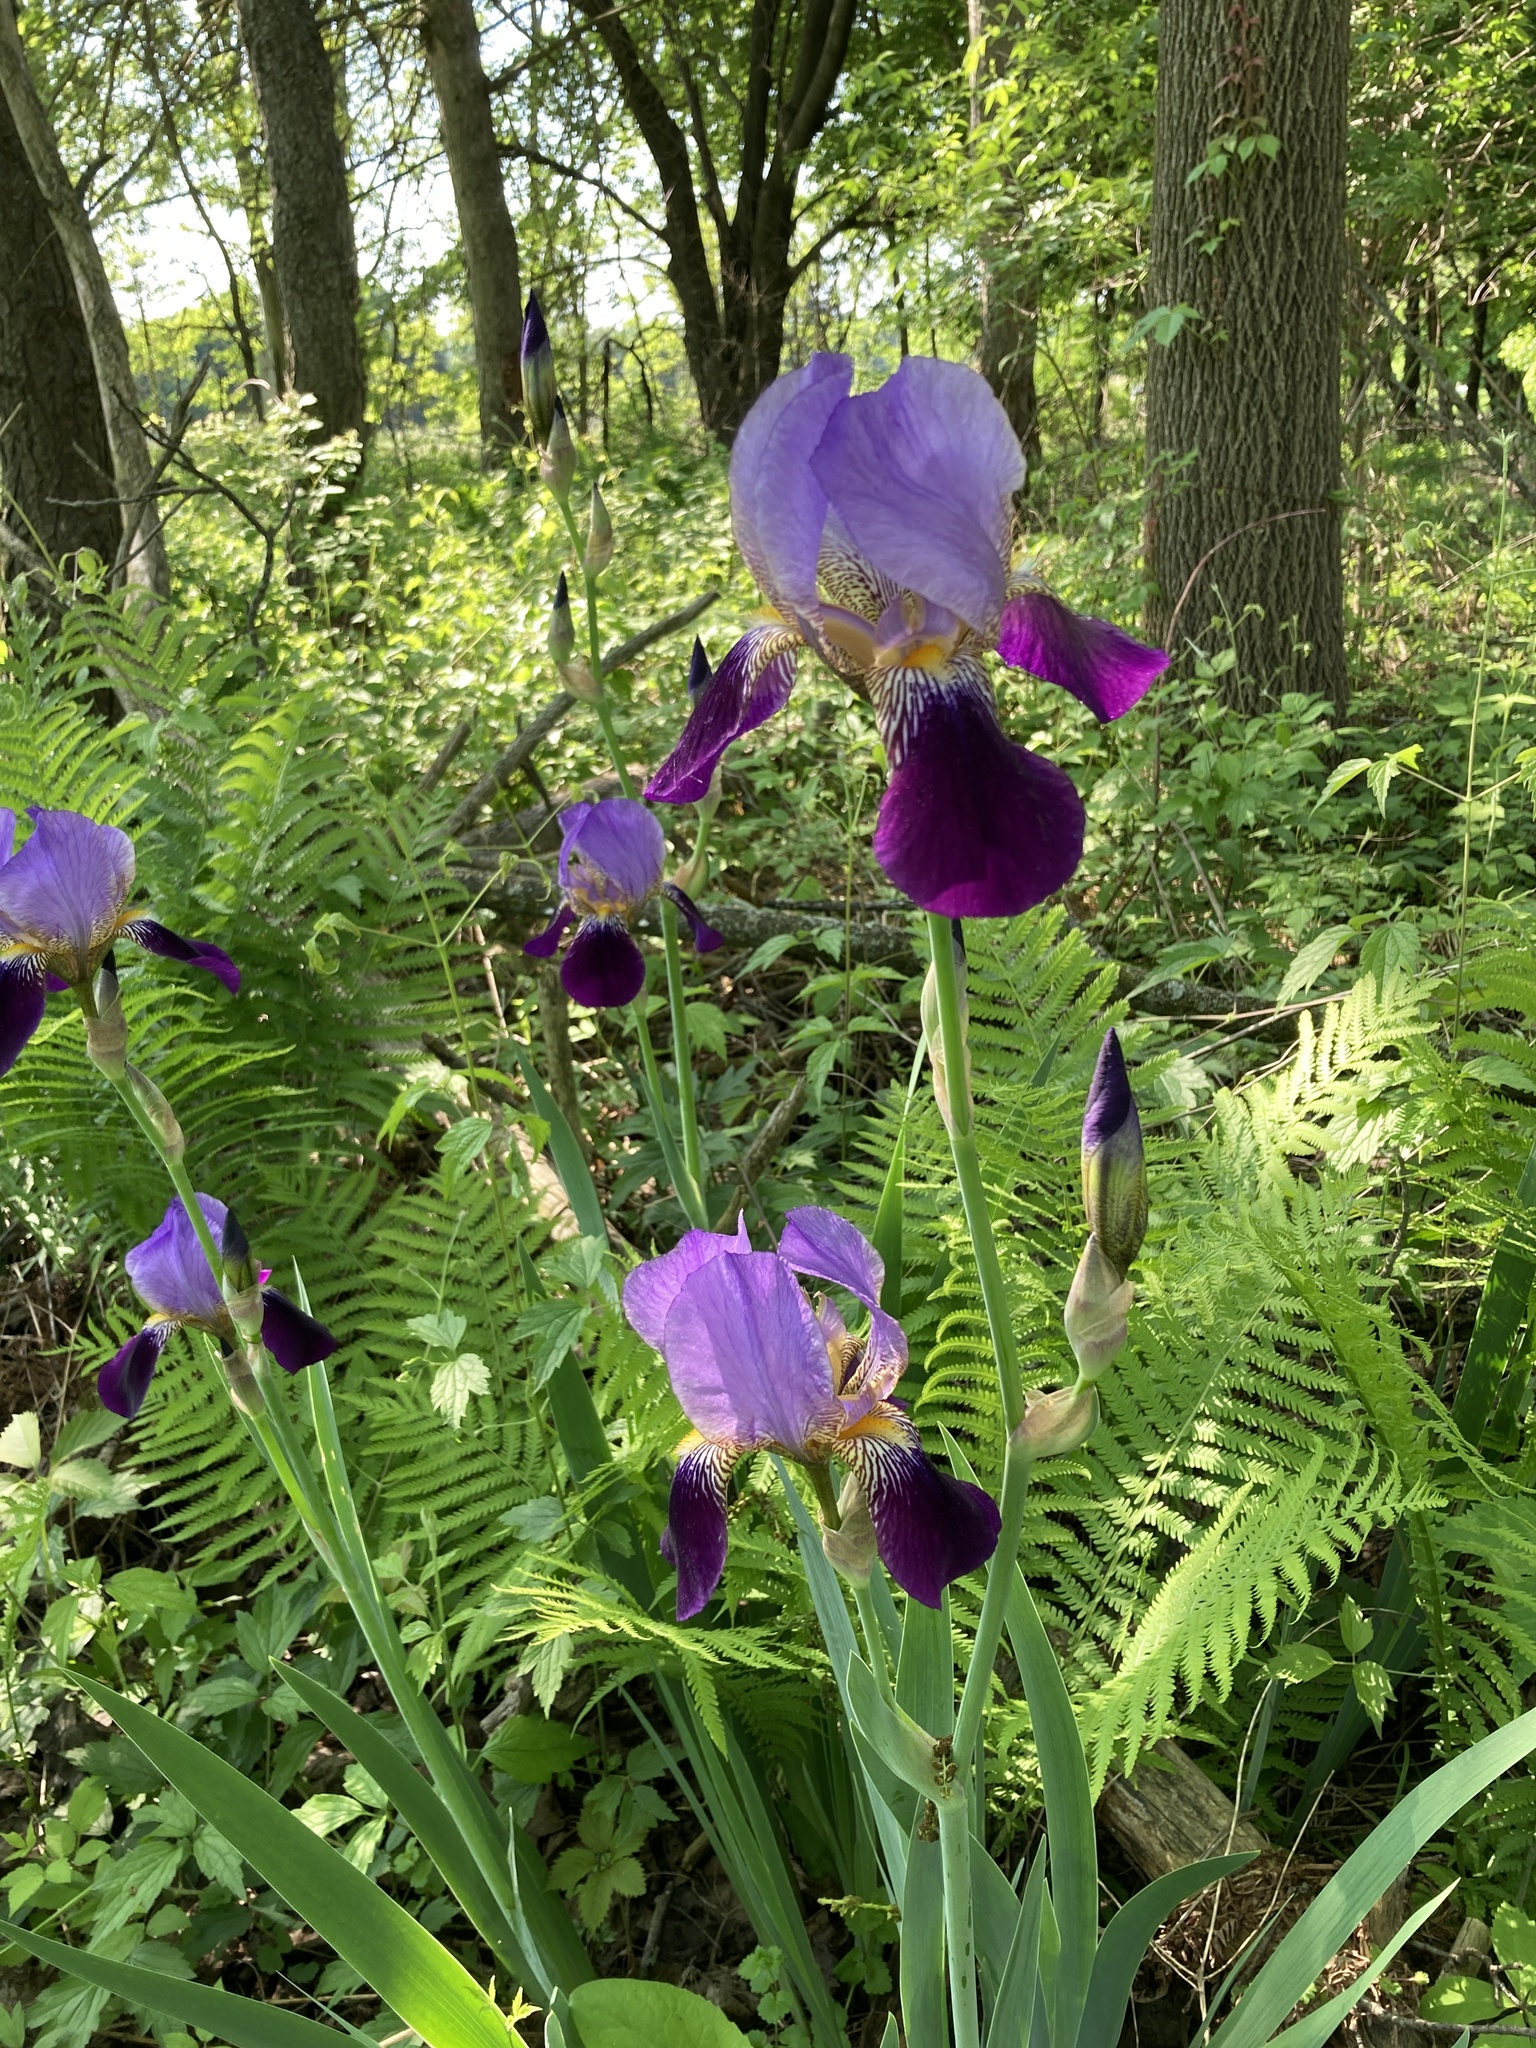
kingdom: Plantae
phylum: Tracheophyta
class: Liliopsida
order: Asparagales
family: Iridaceae
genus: Iris
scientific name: Iris hybrida
